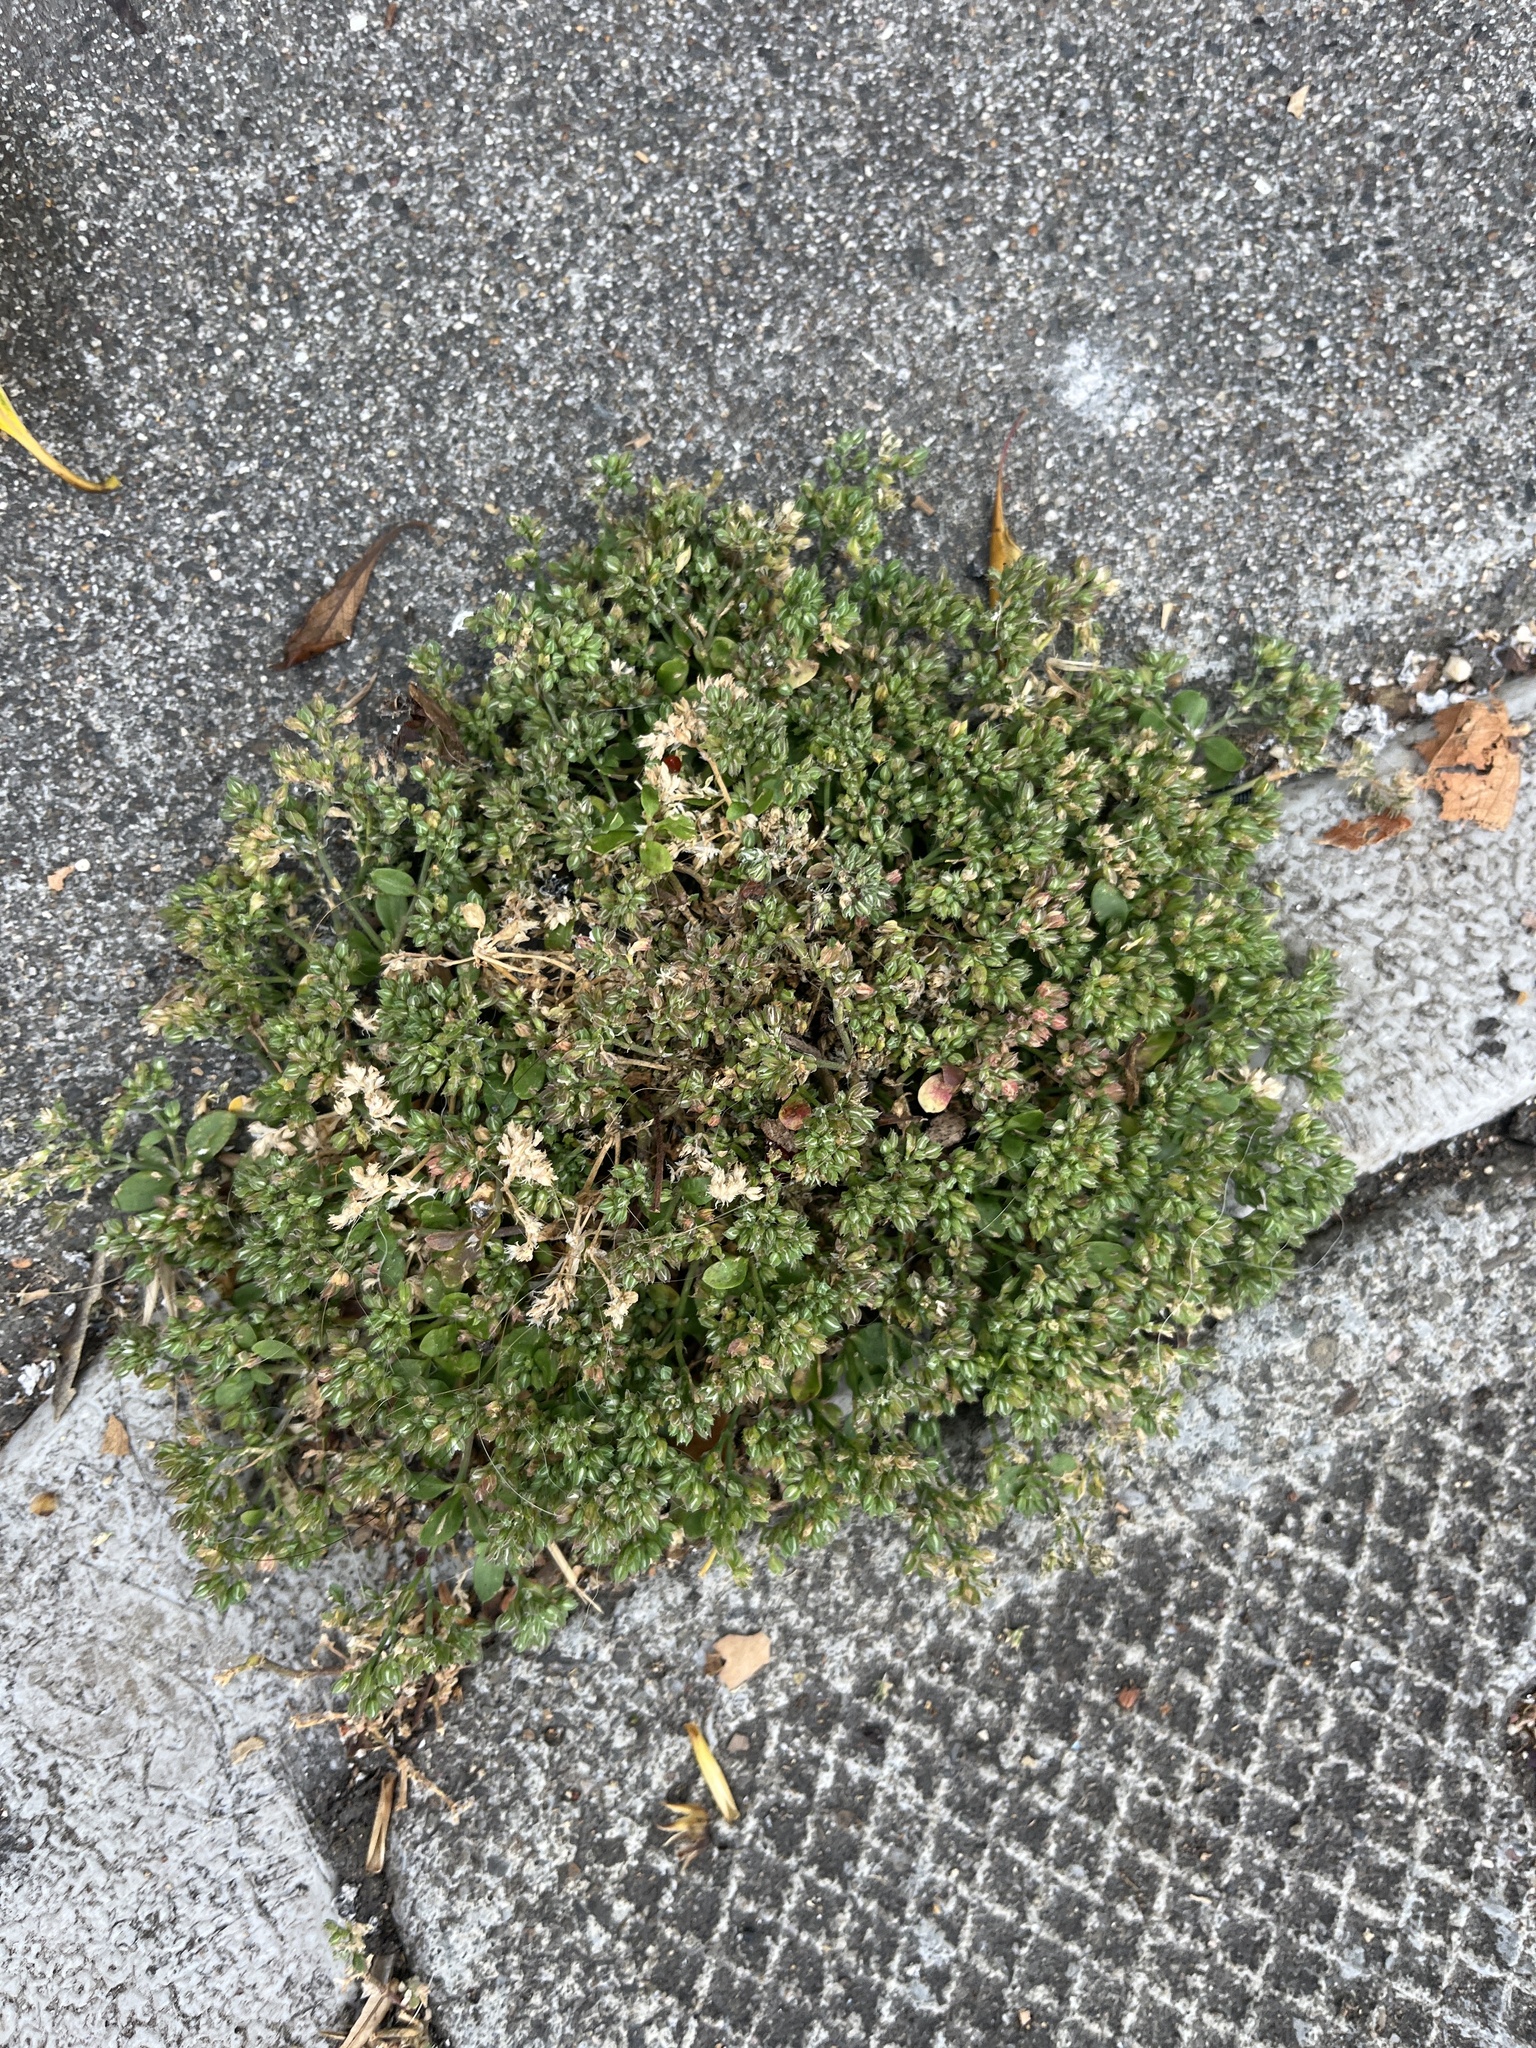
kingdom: Plantae
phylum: Tracheophyta
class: Magnoliopsida
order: Caryophyllales
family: Caryophyllaceae
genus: Polycarpon
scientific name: Polycarpon tetraphyllum
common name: Four-leaved all-seed
